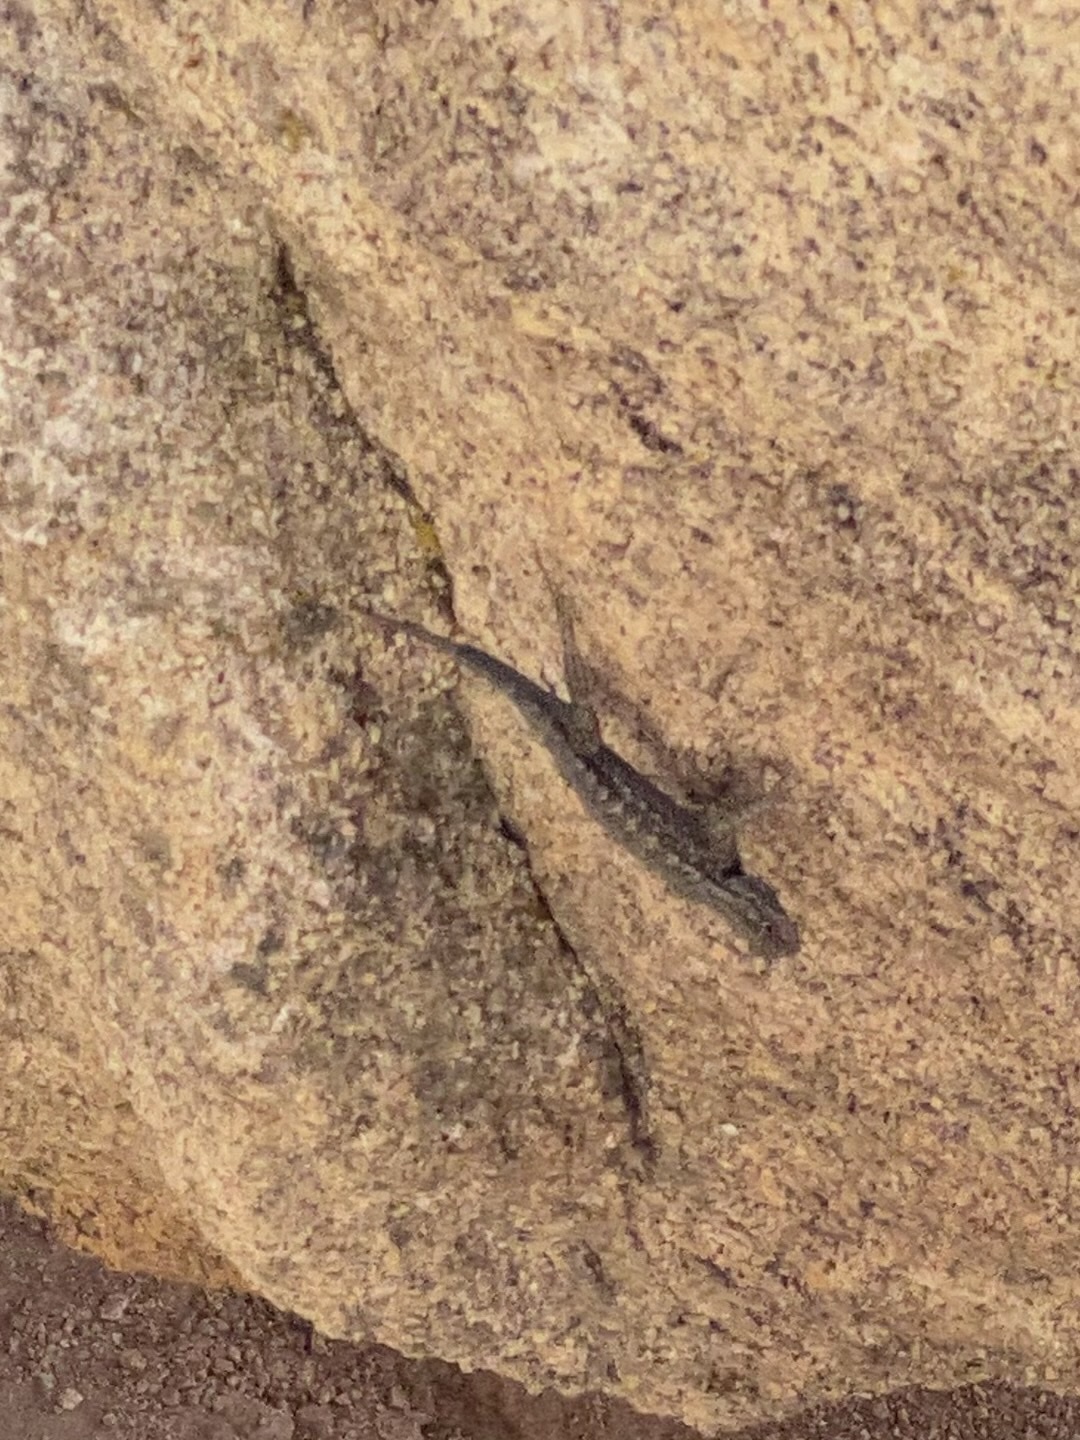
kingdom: Animalia
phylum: Chordata
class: Squamata
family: Phrynosomatidae
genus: Sceloporus
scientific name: Sceloporus occidentalis
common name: Western fence lizard
